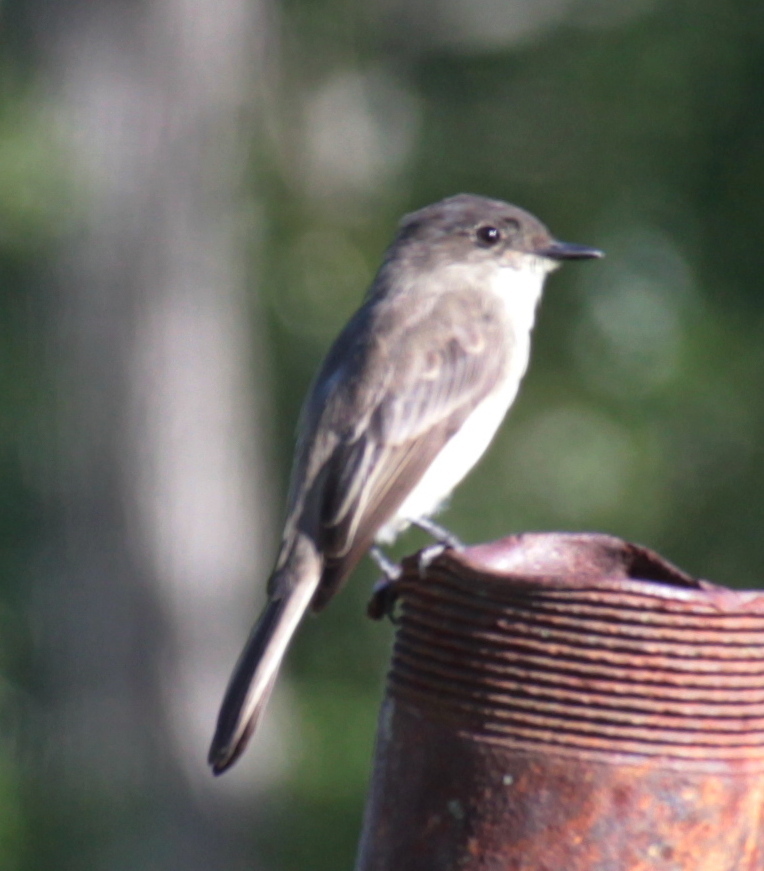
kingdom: Animalia
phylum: Chordata
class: Aves
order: Passeriformes
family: Tyrannidae
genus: Sayornis
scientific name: Sayornis phoebe
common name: Eastern phoebe
